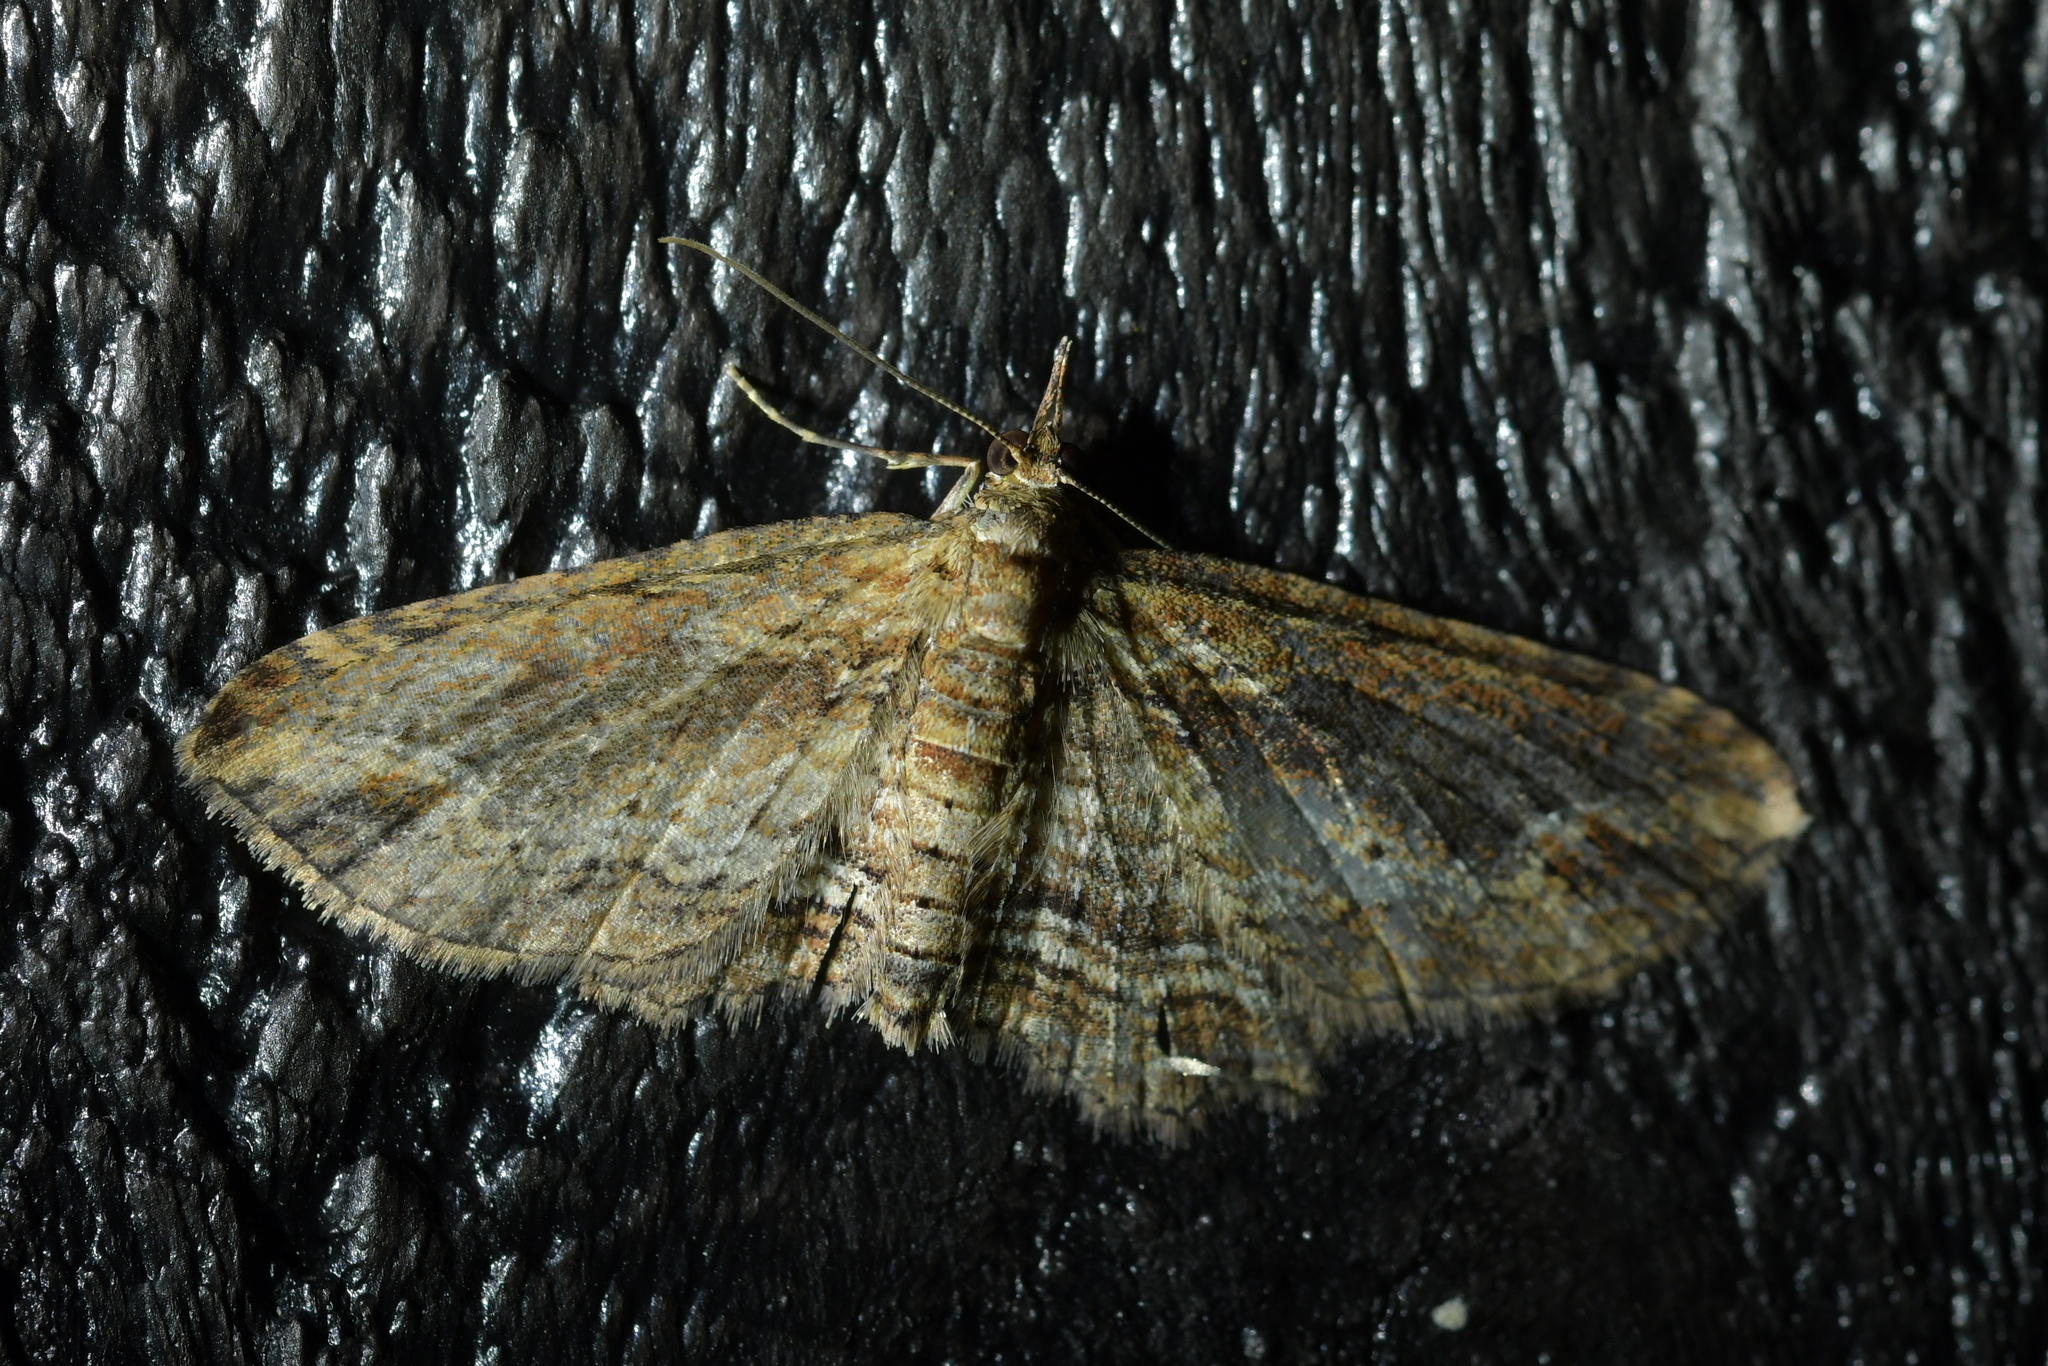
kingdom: Animalia
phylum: Arthropoda
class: Insecta
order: Lepidoptera
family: Geometridae
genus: Chloroclystis
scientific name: Chloroclystis filata
